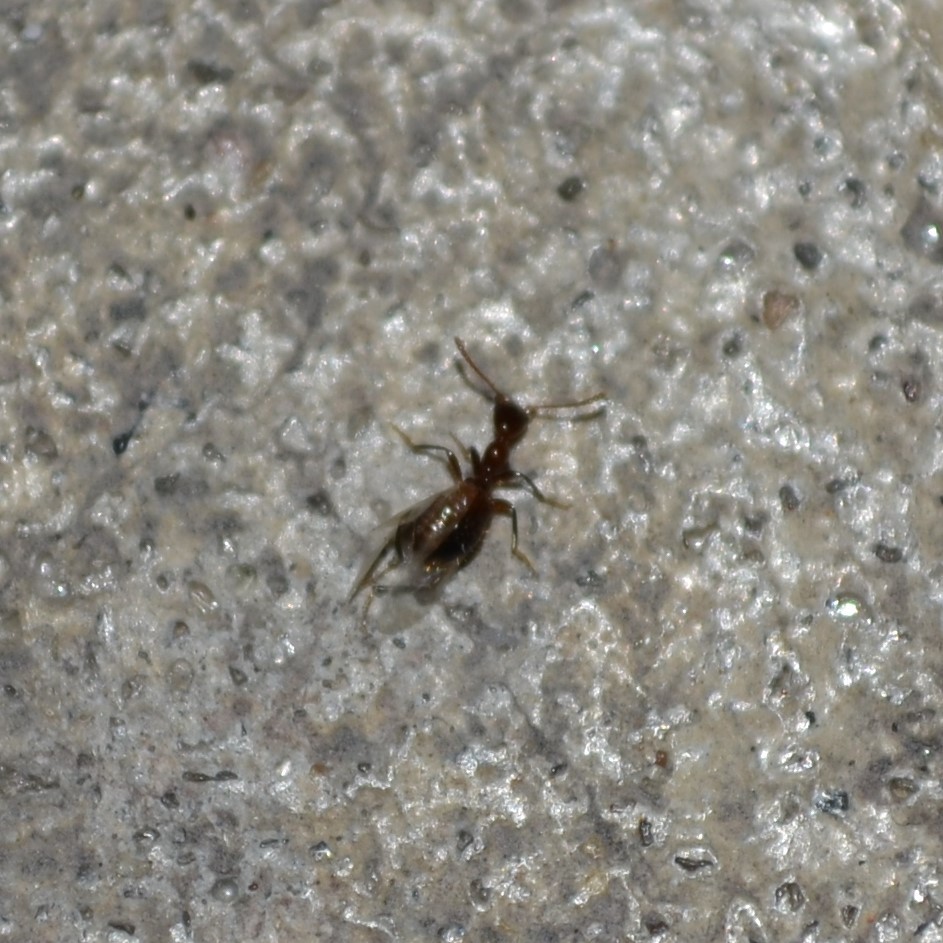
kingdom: Animalia
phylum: Arthropoda
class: Insecta
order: Coleoptera
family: Anthicidae
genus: Acanthinus
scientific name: Acanthinus
